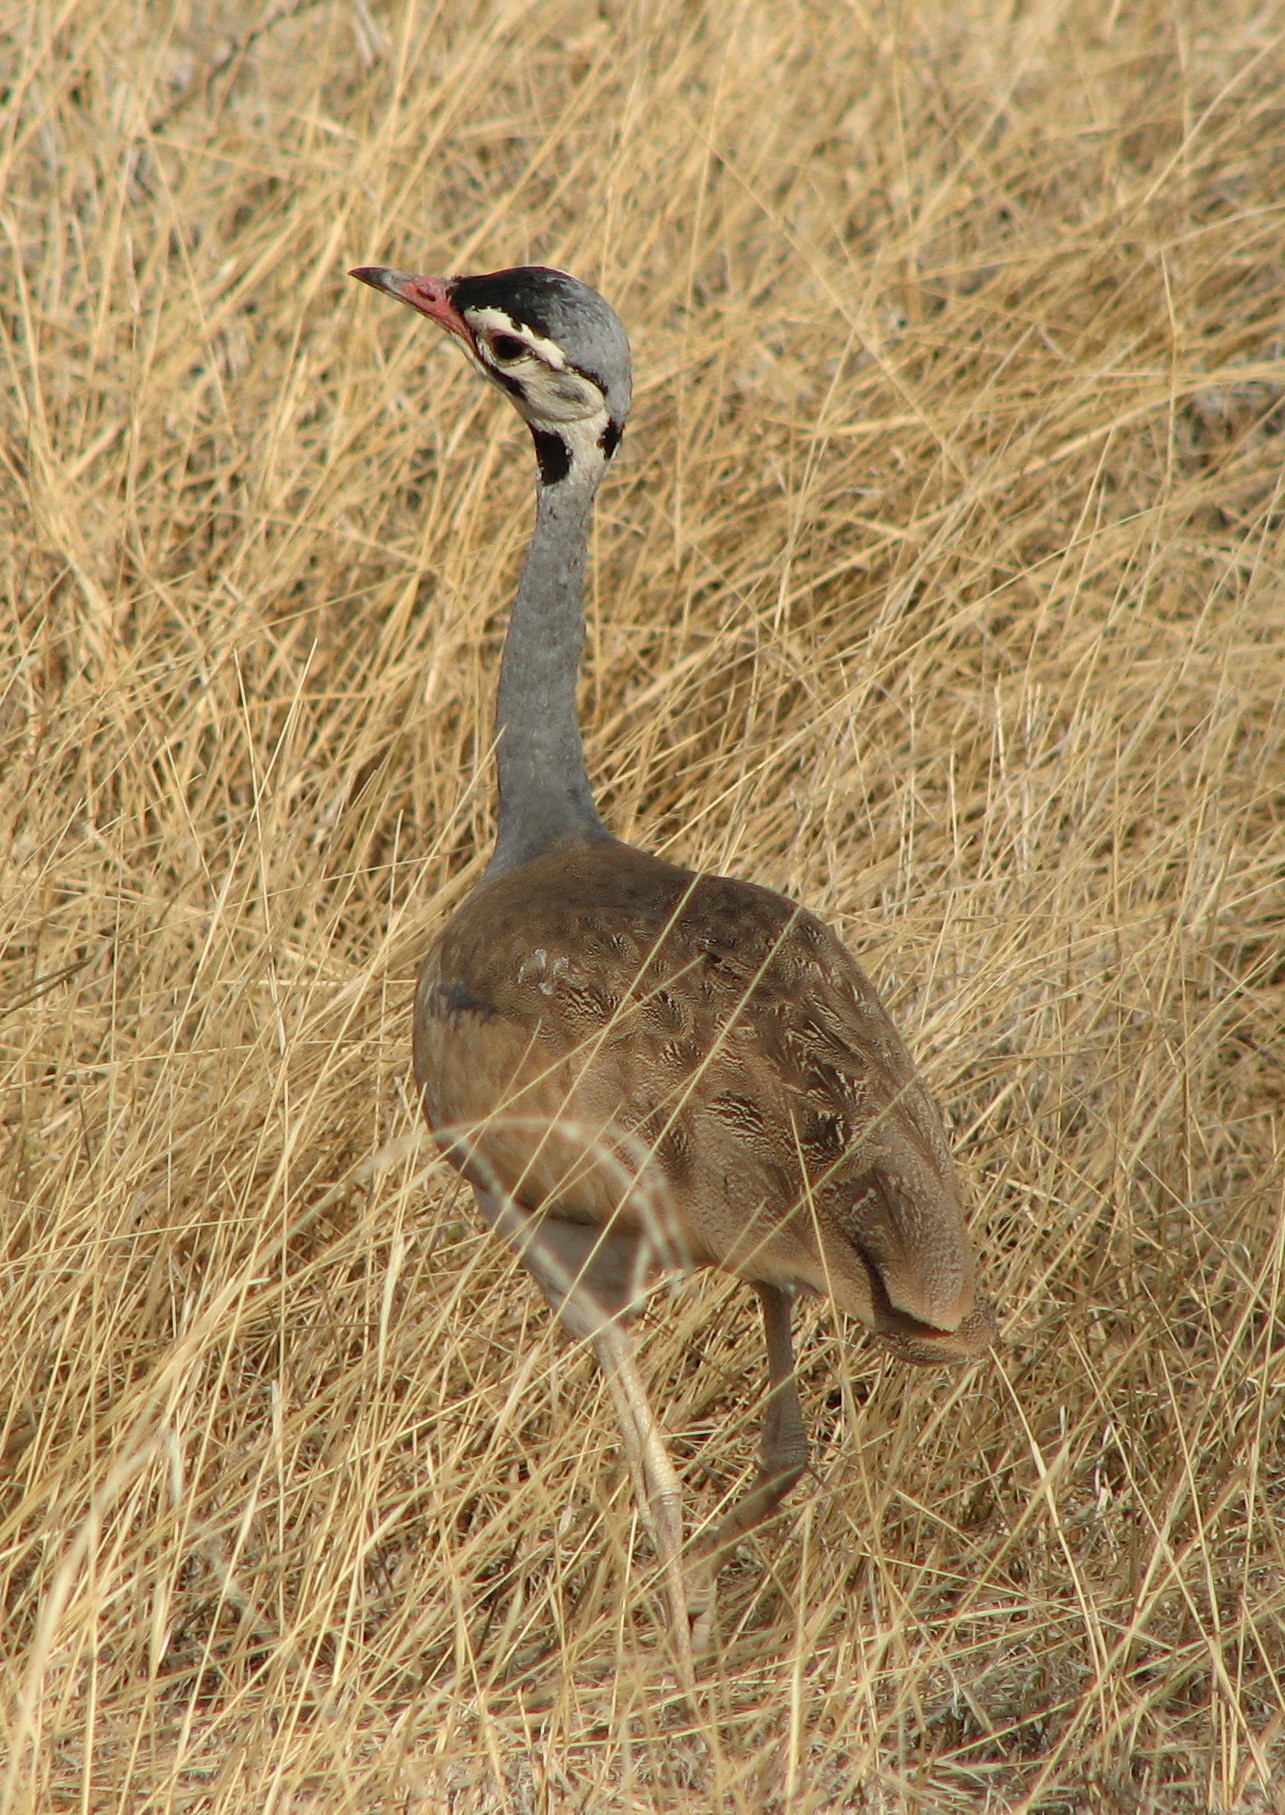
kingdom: Animalia
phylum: Chordata
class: Aves
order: Otidiformes
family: Otididae
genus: Eupodotis
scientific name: Eupodotis senegalensis
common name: White-bellied bustard
